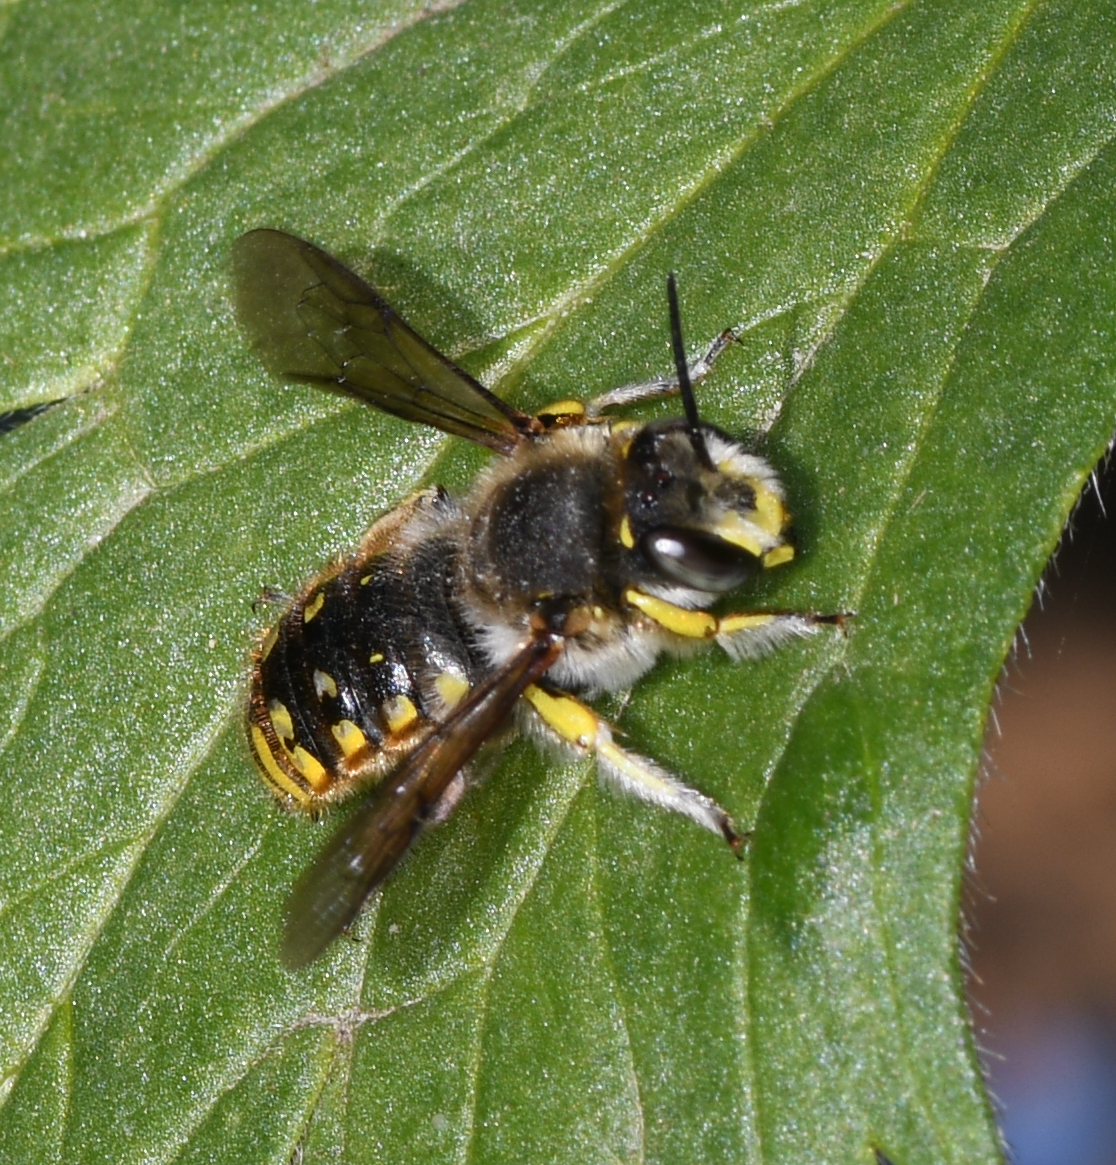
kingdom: Animalia
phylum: Arthropoda
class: Insecta
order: Hymenoptera
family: Megachilidae
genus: Anthidium
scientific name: Anthidium manicatum
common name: Wool carder bee
